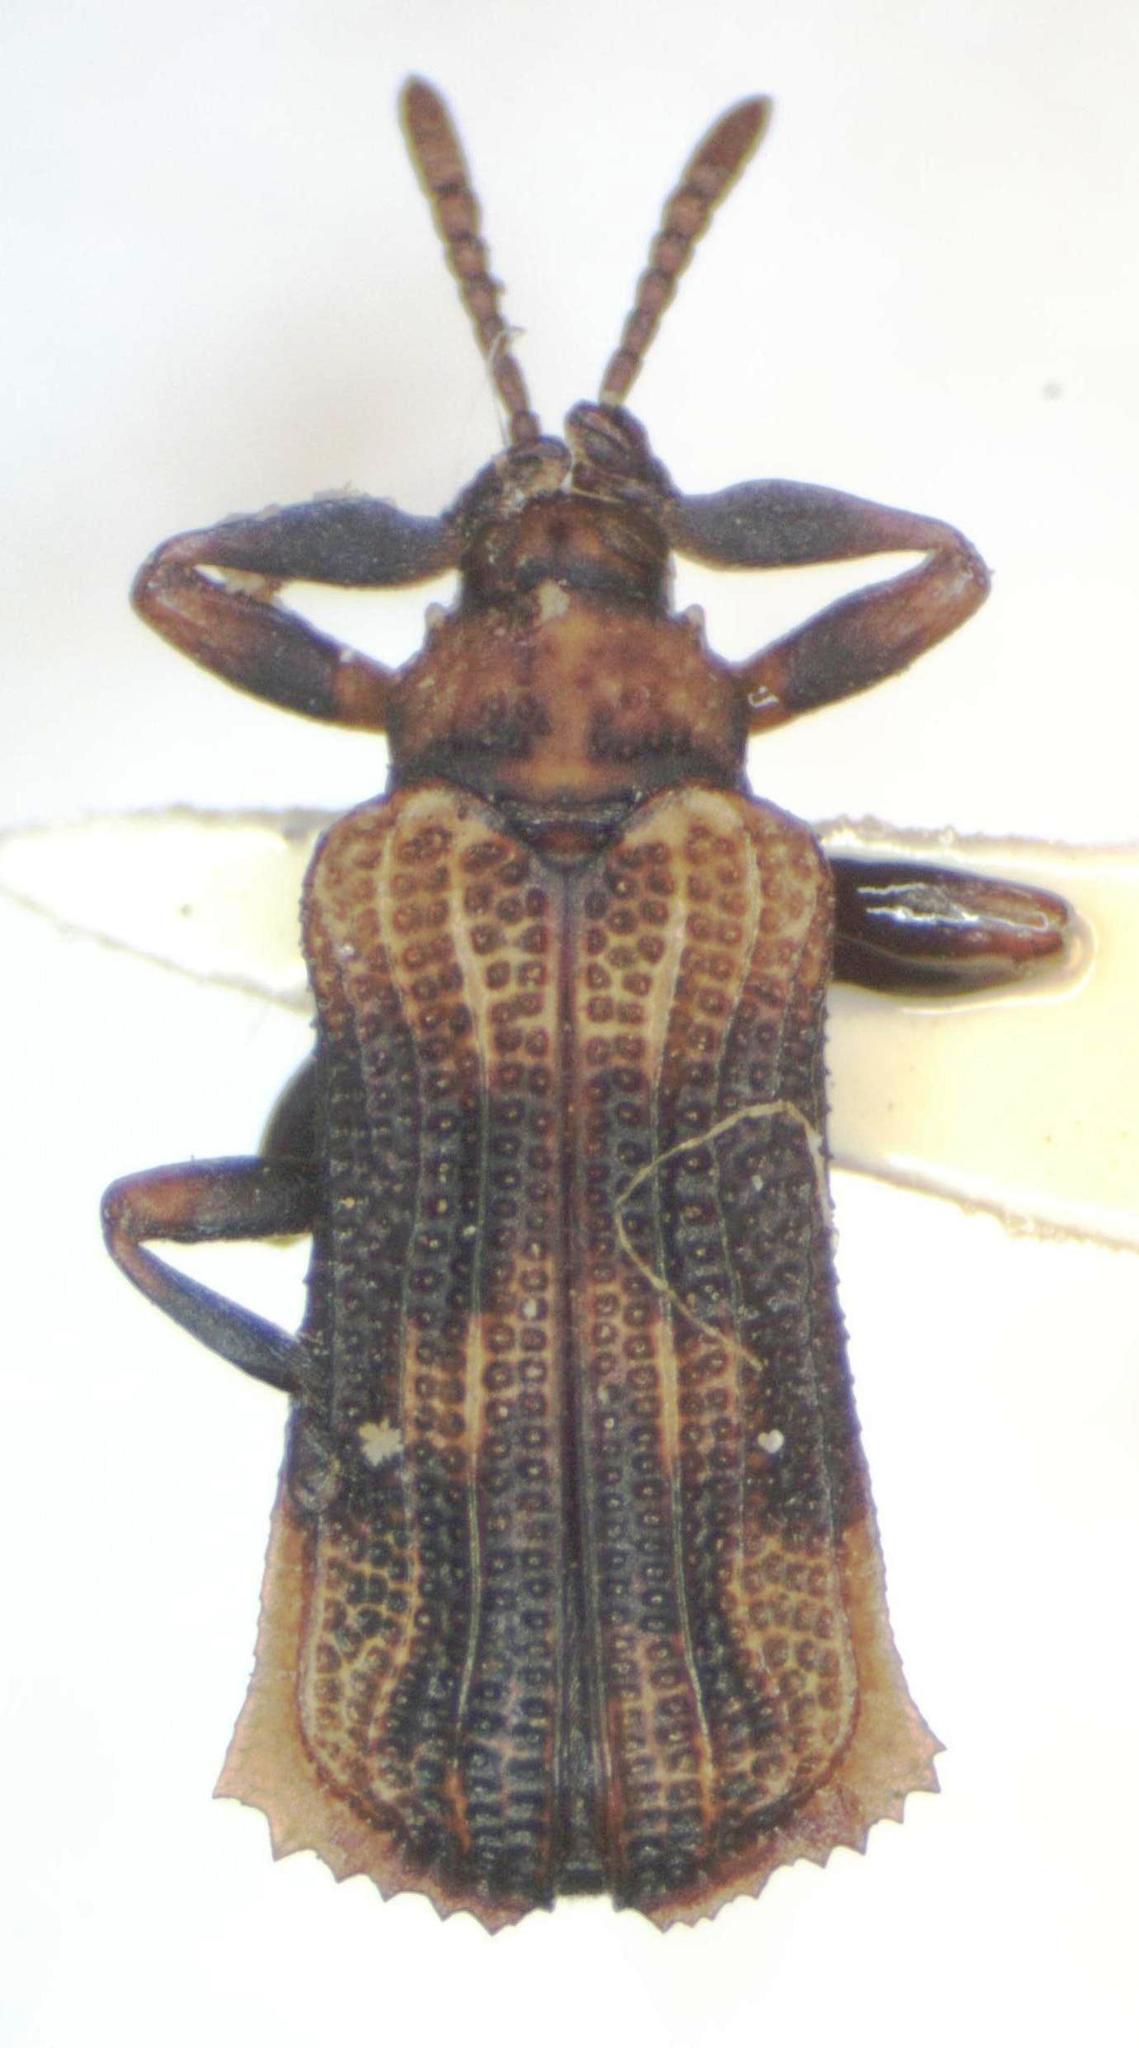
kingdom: Animalia
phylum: Arthropoda
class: Insecta
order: Coleoptera
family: Chrysomelidae
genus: Uroplata
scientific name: Uroplata fusca
